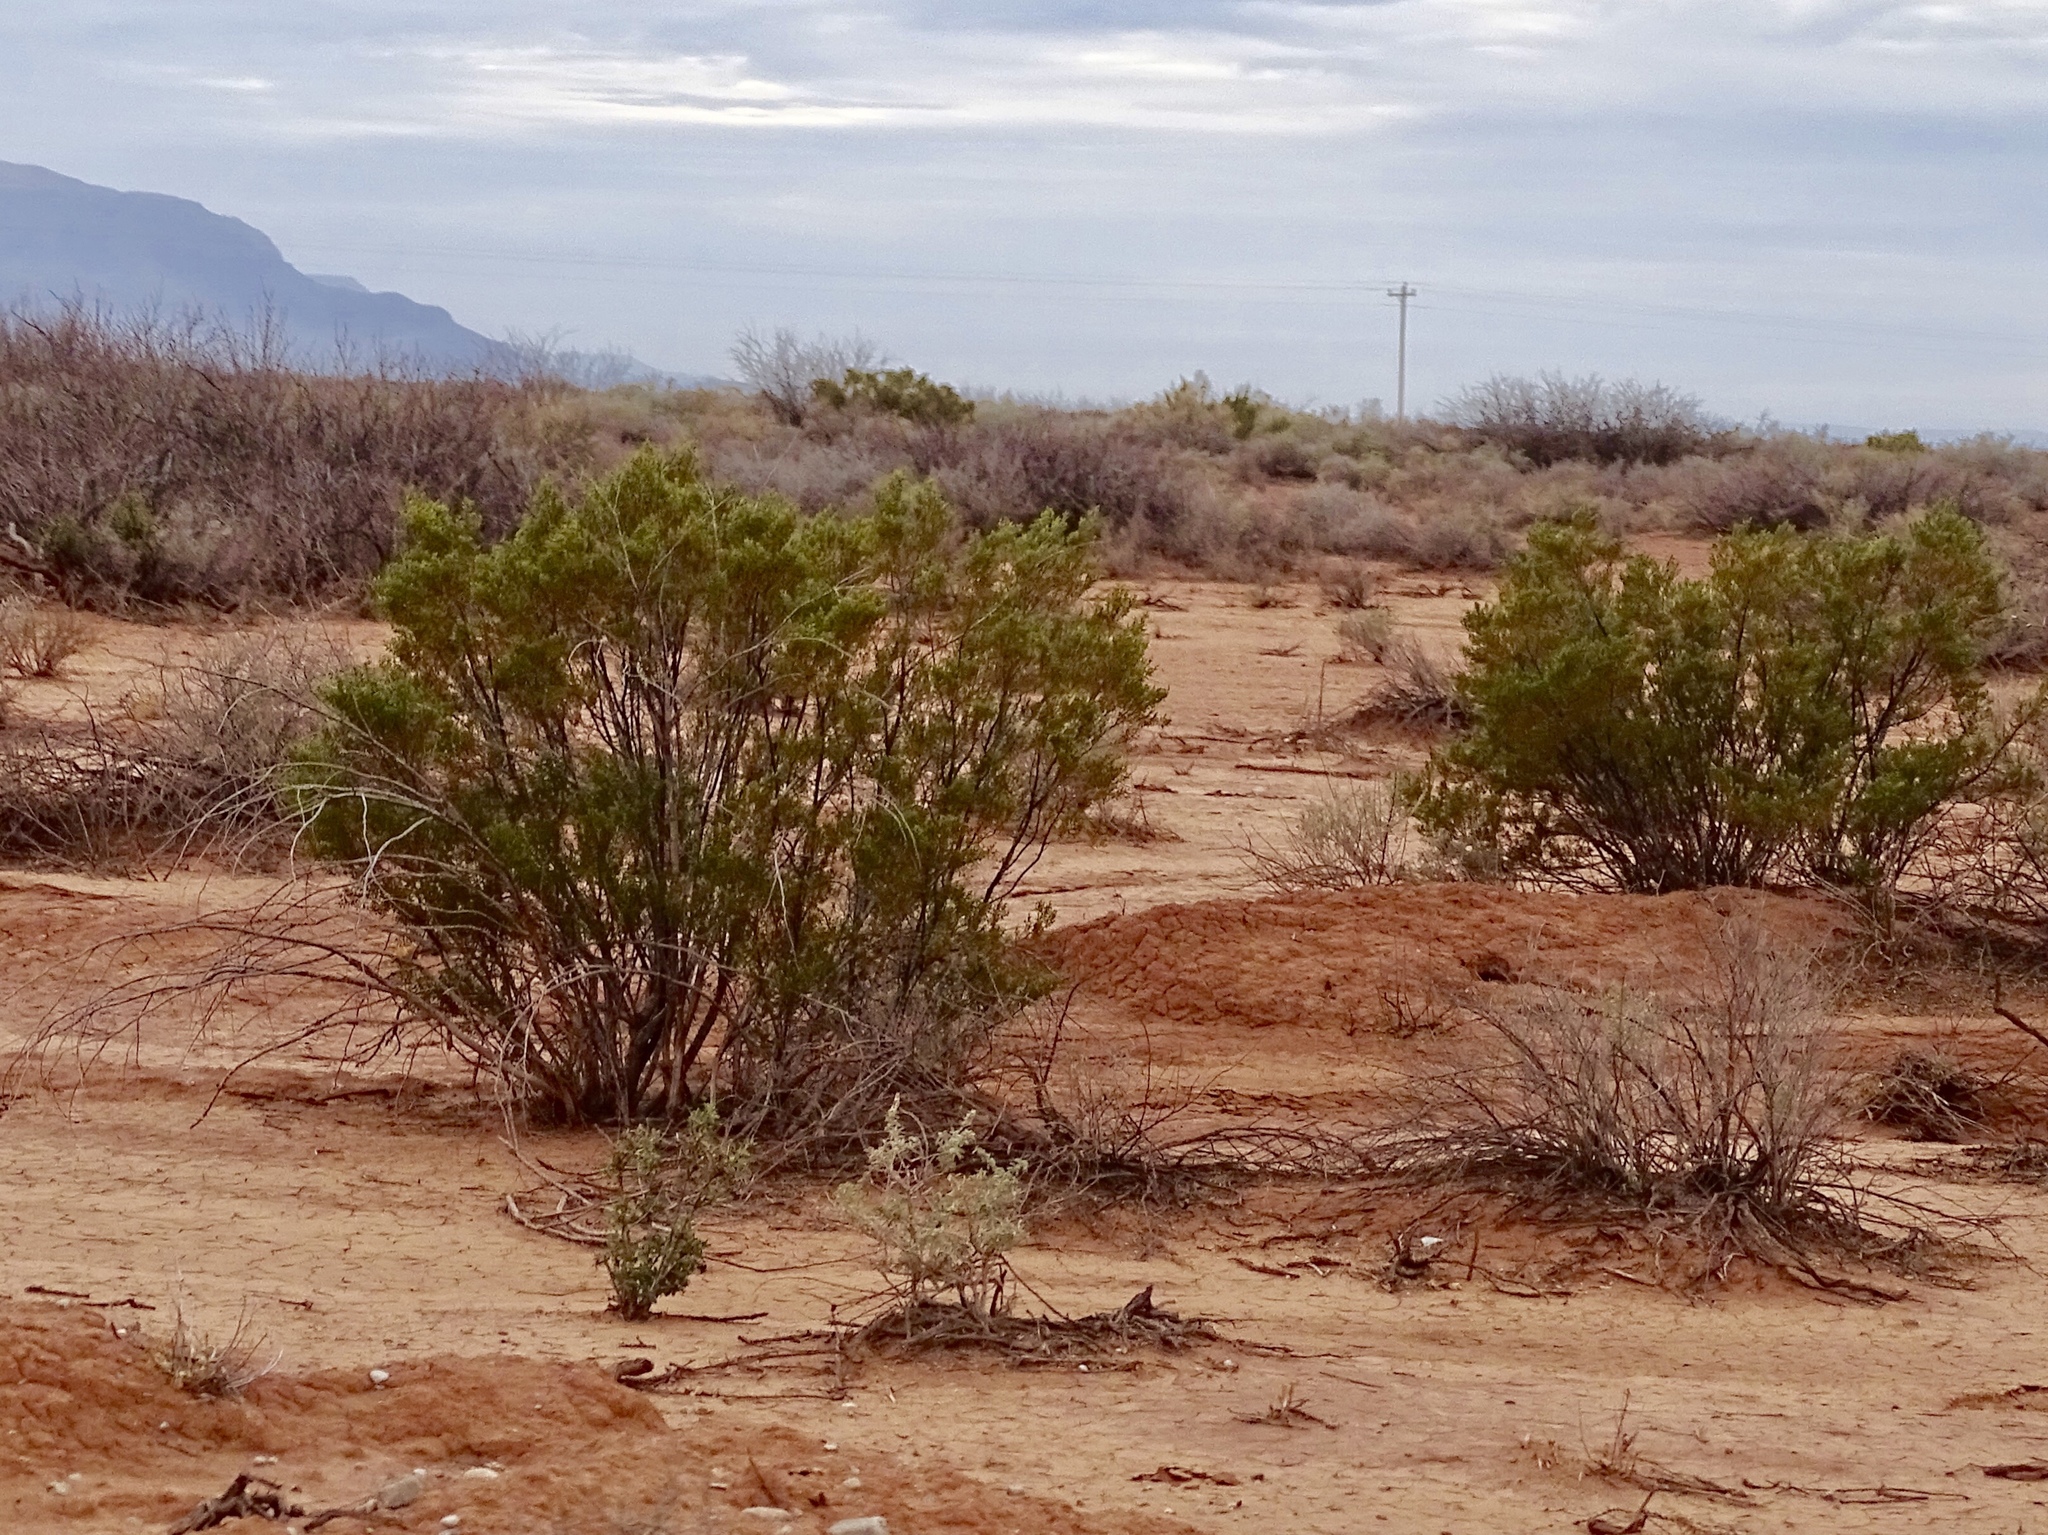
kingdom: Plantae
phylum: Tracheophyta
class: Magnoliopsida
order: Zygophyllales
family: Zygophyllaceae
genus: Larrea
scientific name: Larrea tridentata
